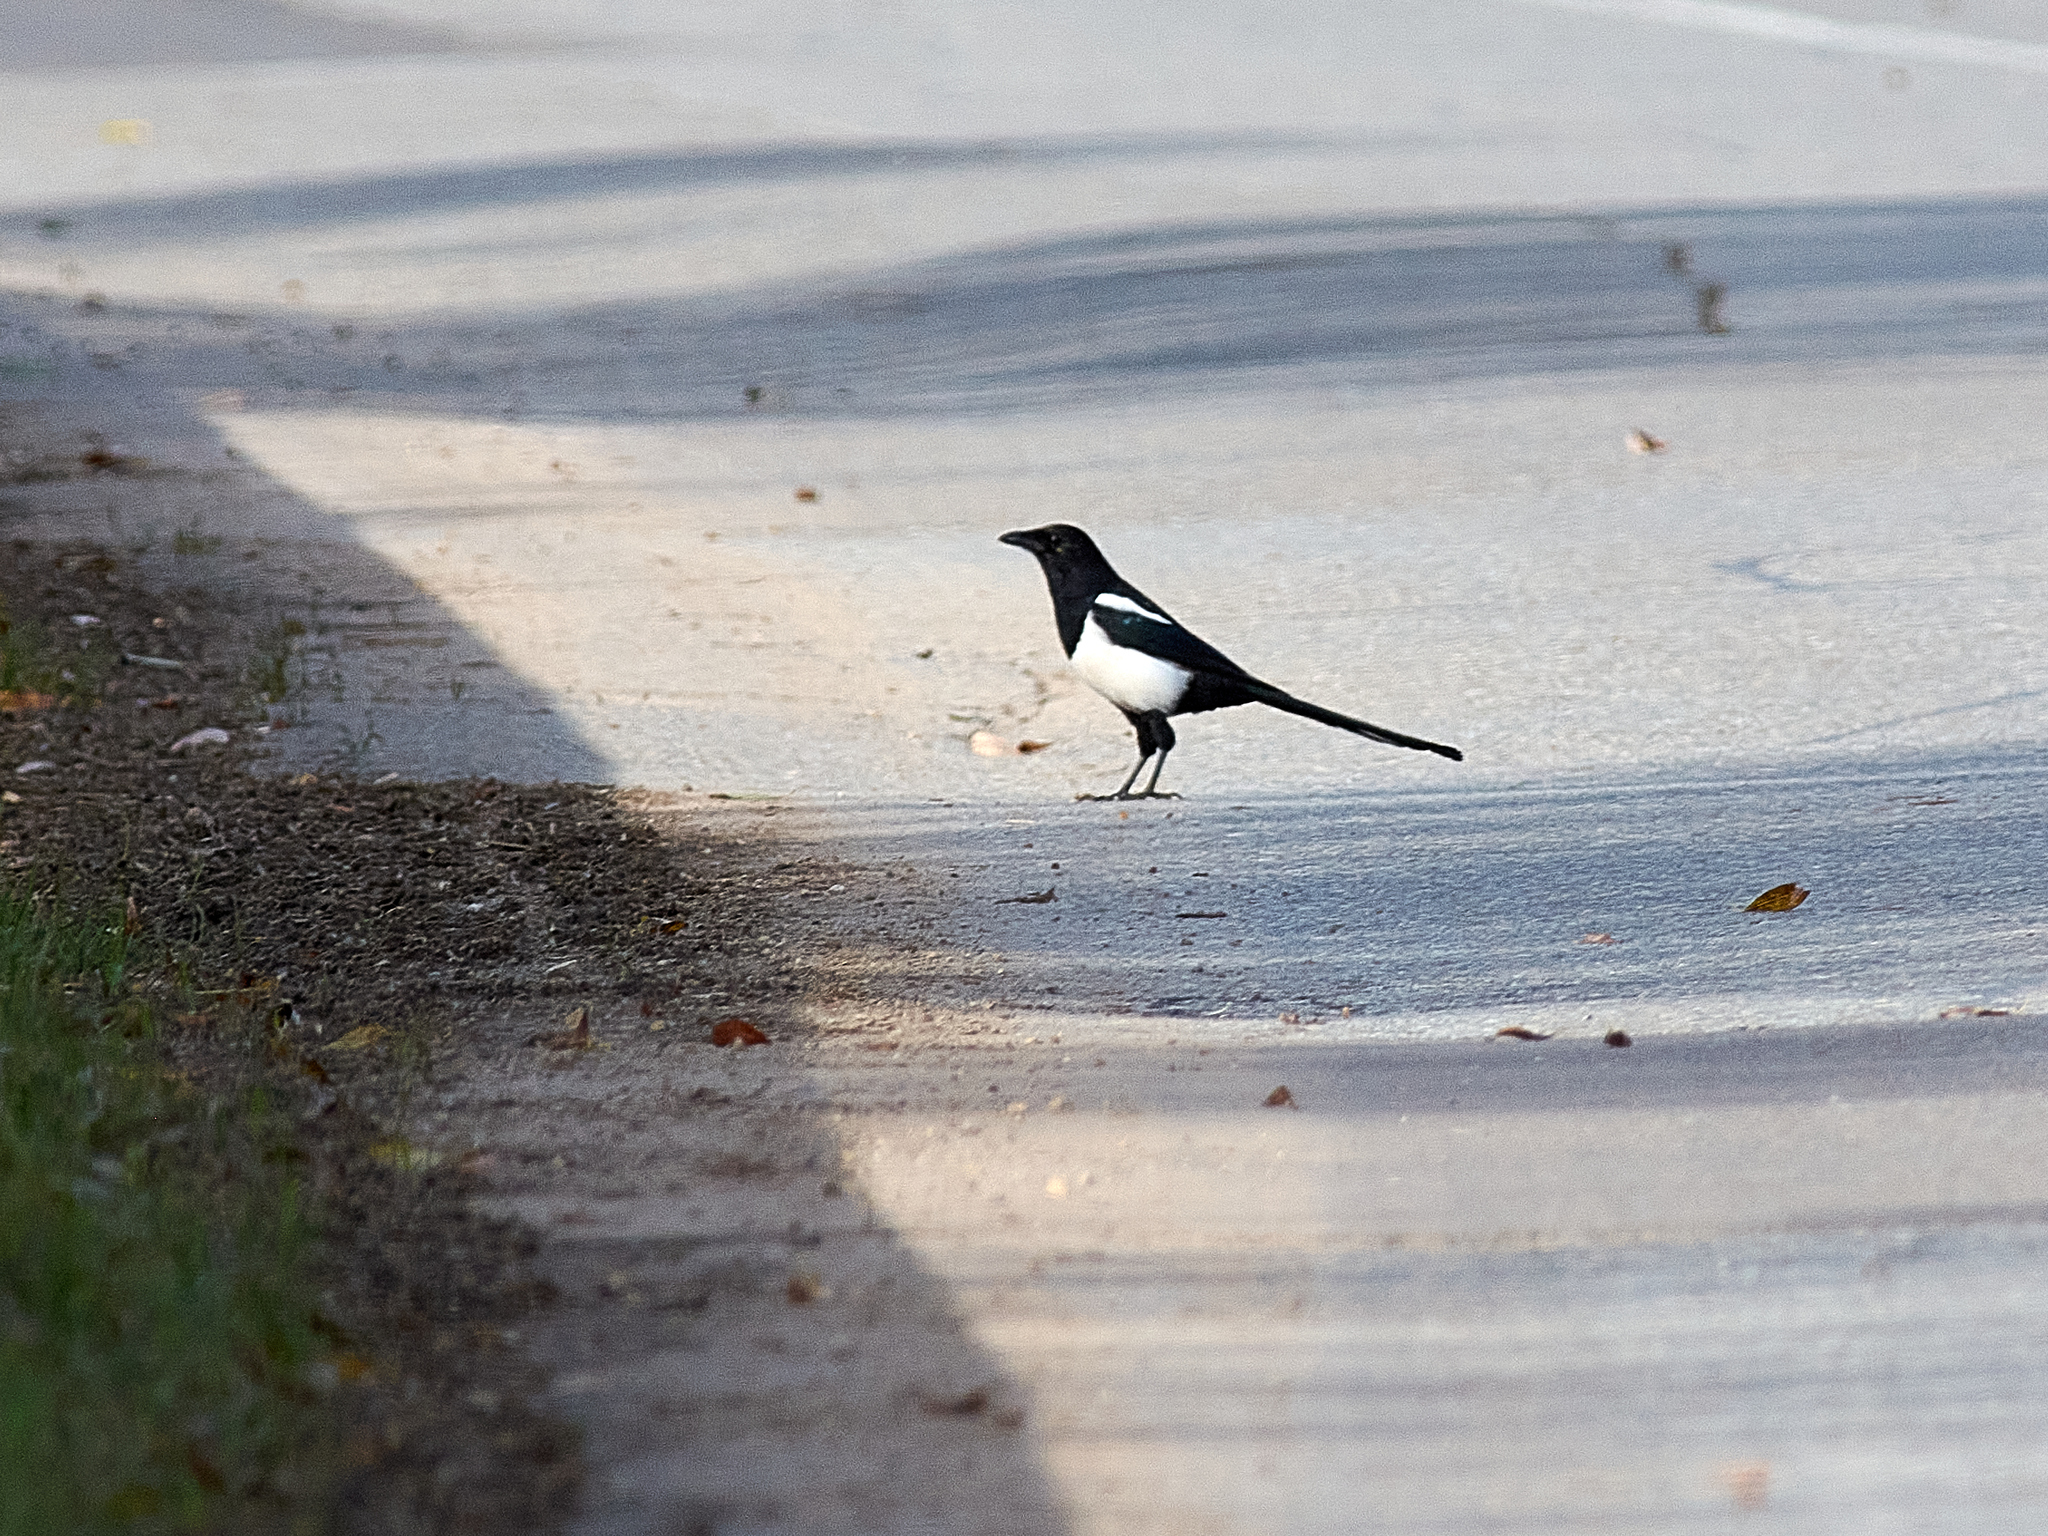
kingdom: Animalia
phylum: Chordata
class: Aves
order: Passeriformes
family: Corvidae
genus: Pica
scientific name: Pica pica
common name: Eurasian magpie
